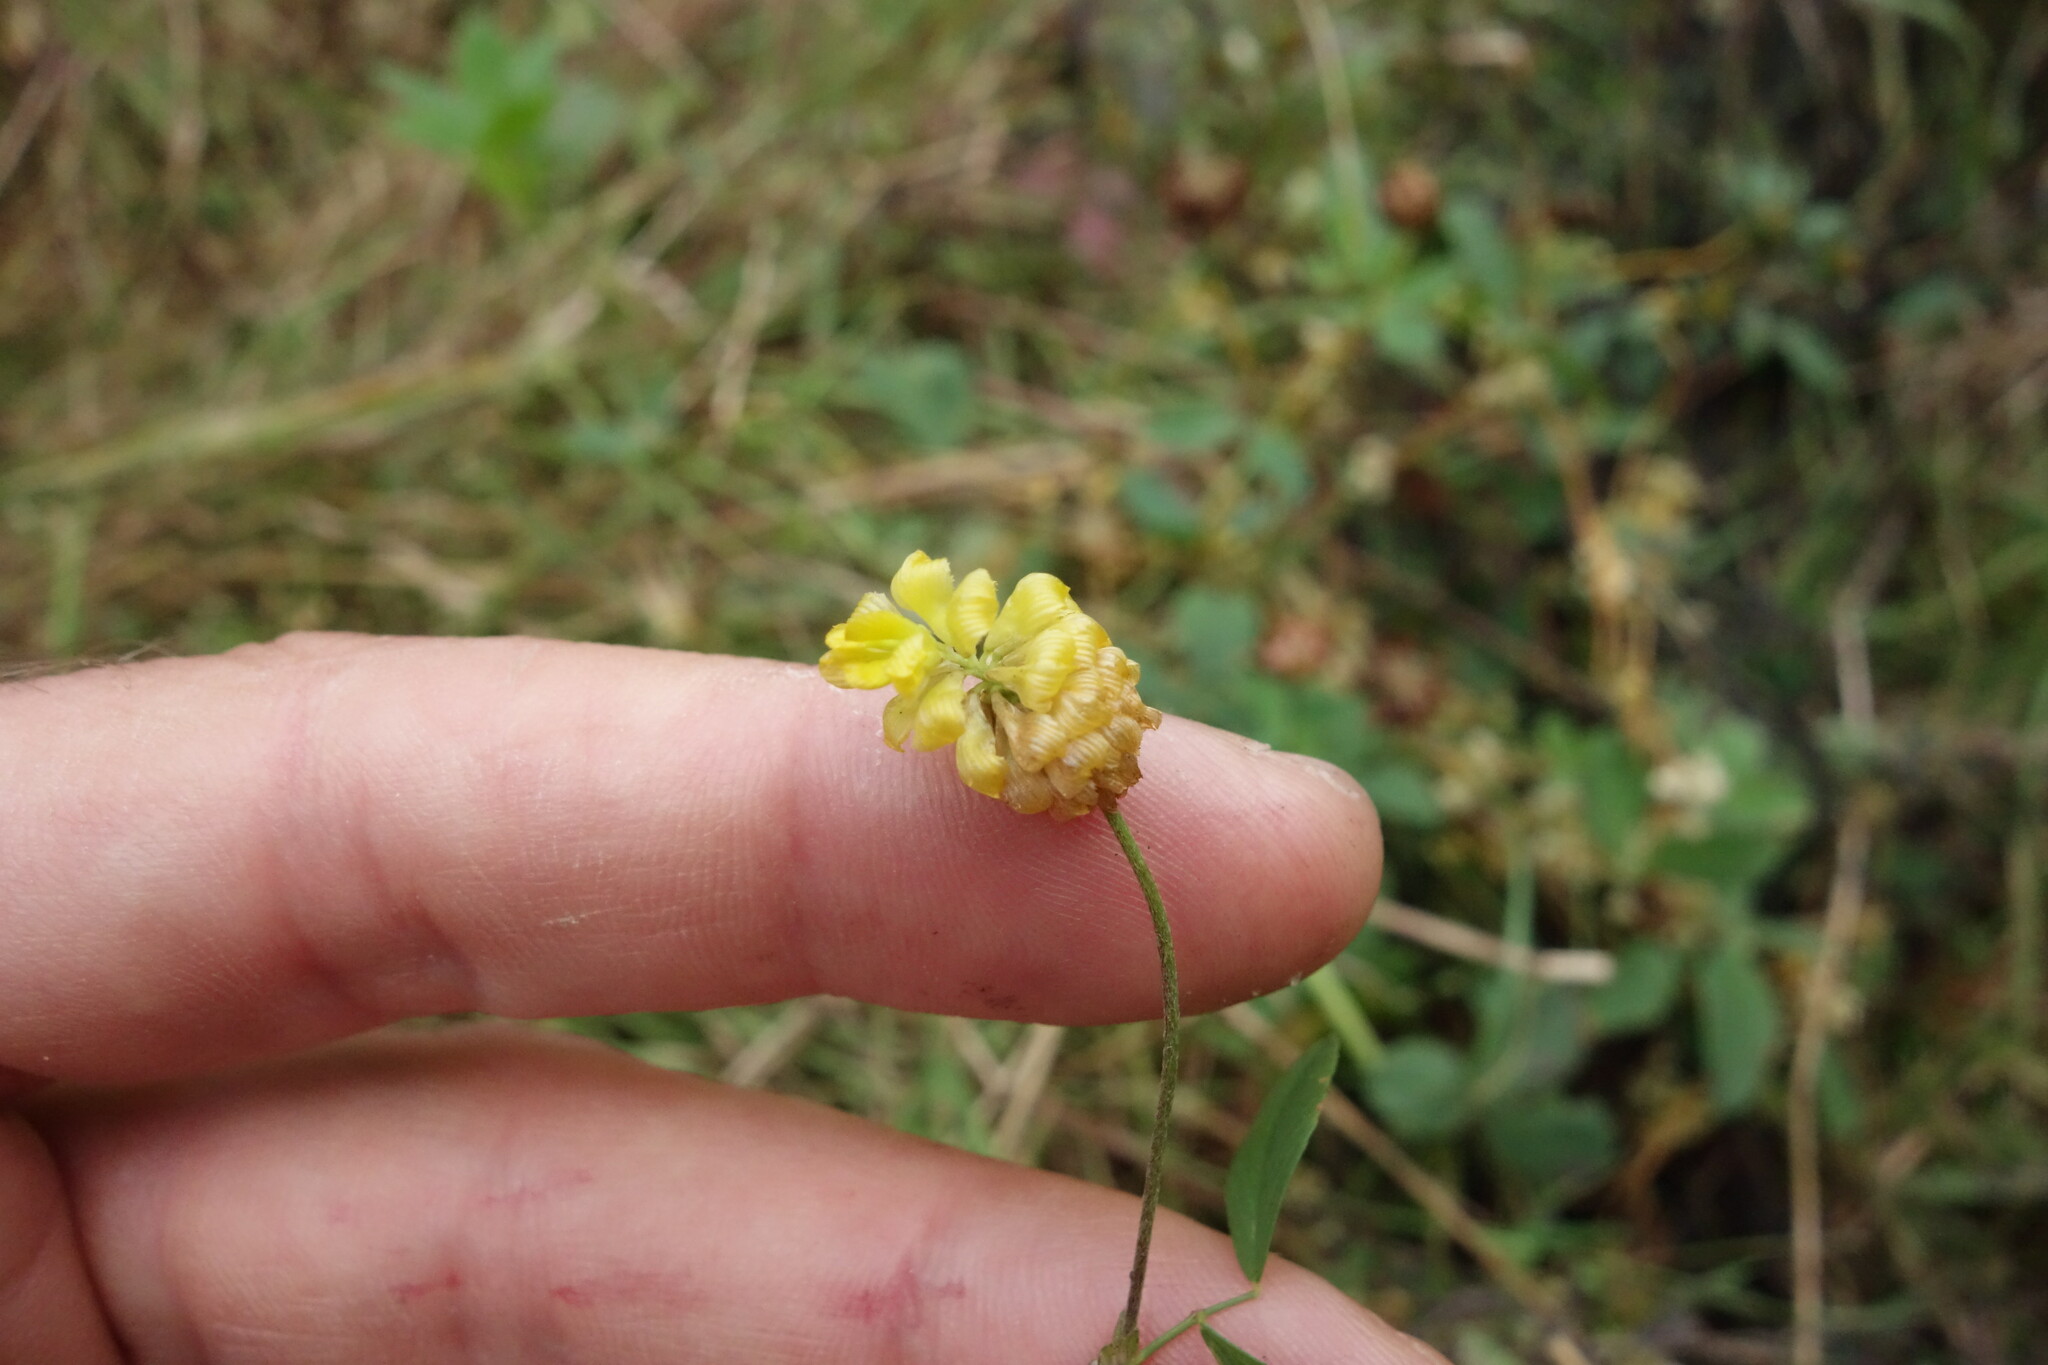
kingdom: Plantae
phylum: Tracheophyta
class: Magnoliopsida
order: Fabales
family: Fabaceae
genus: Trifolium
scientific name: Trifolium campestre
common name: Field clover
